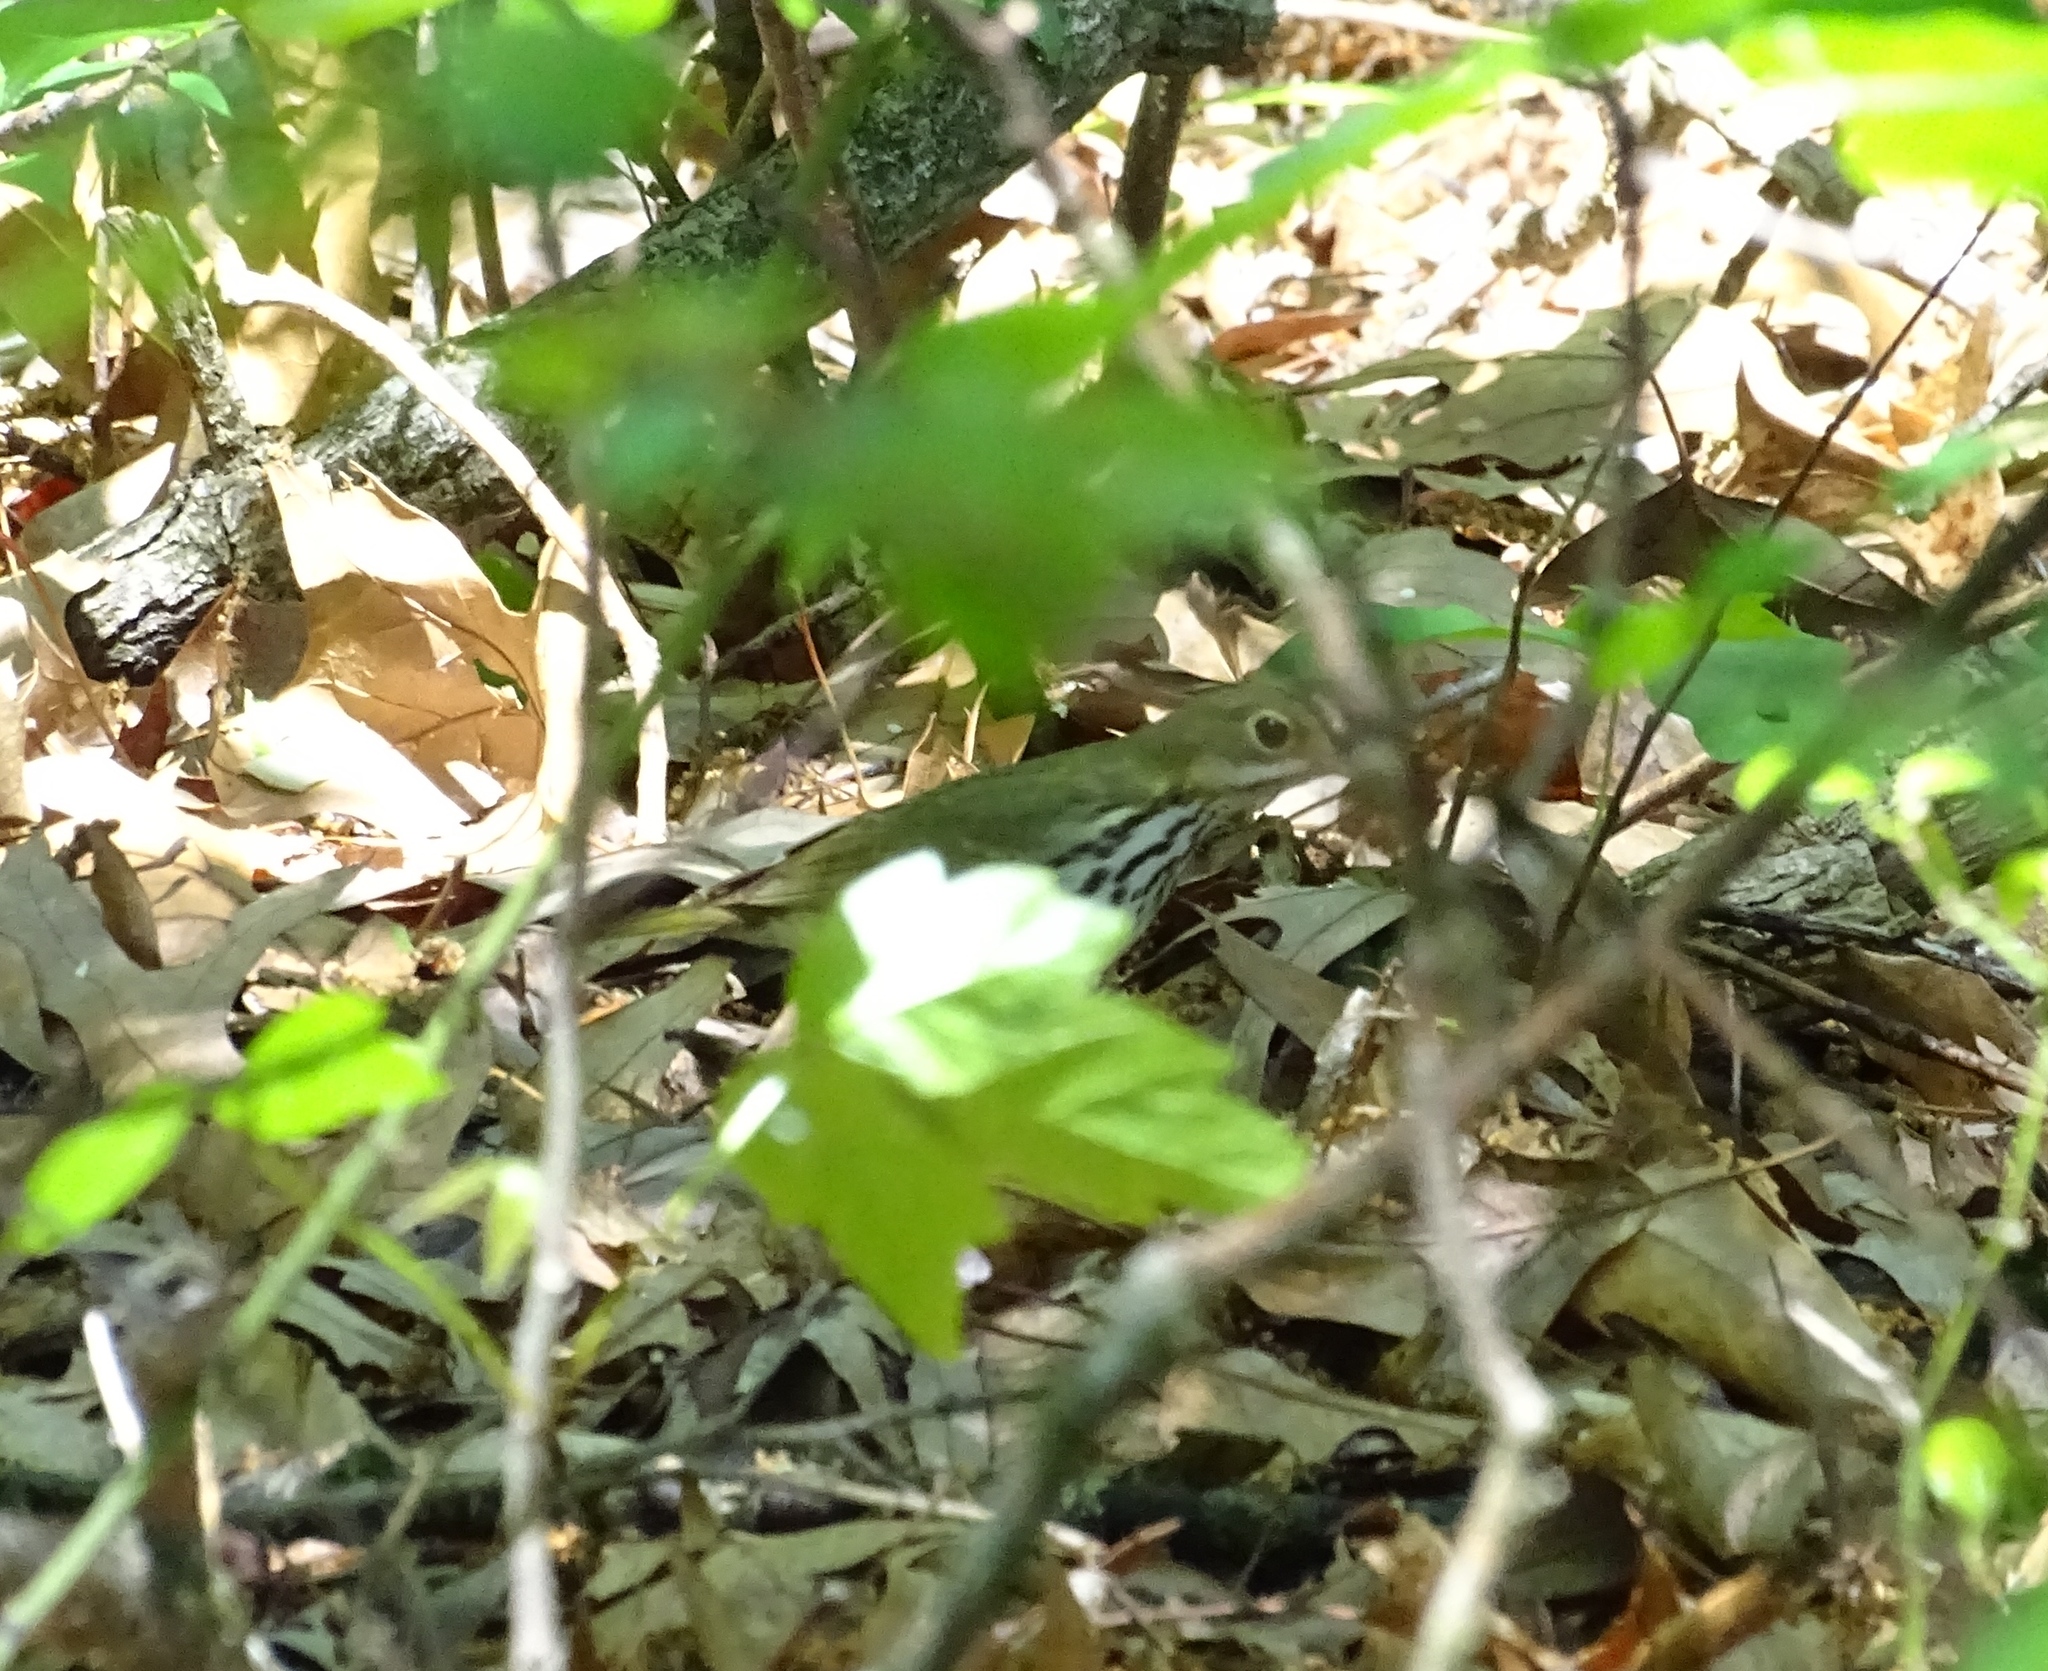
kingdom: Animalia
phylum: Chordata
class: Aves
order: Passeriformes
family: Parulidae
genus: Seiurus
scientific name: Seiurus aurocapilla
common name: Ovenbird
